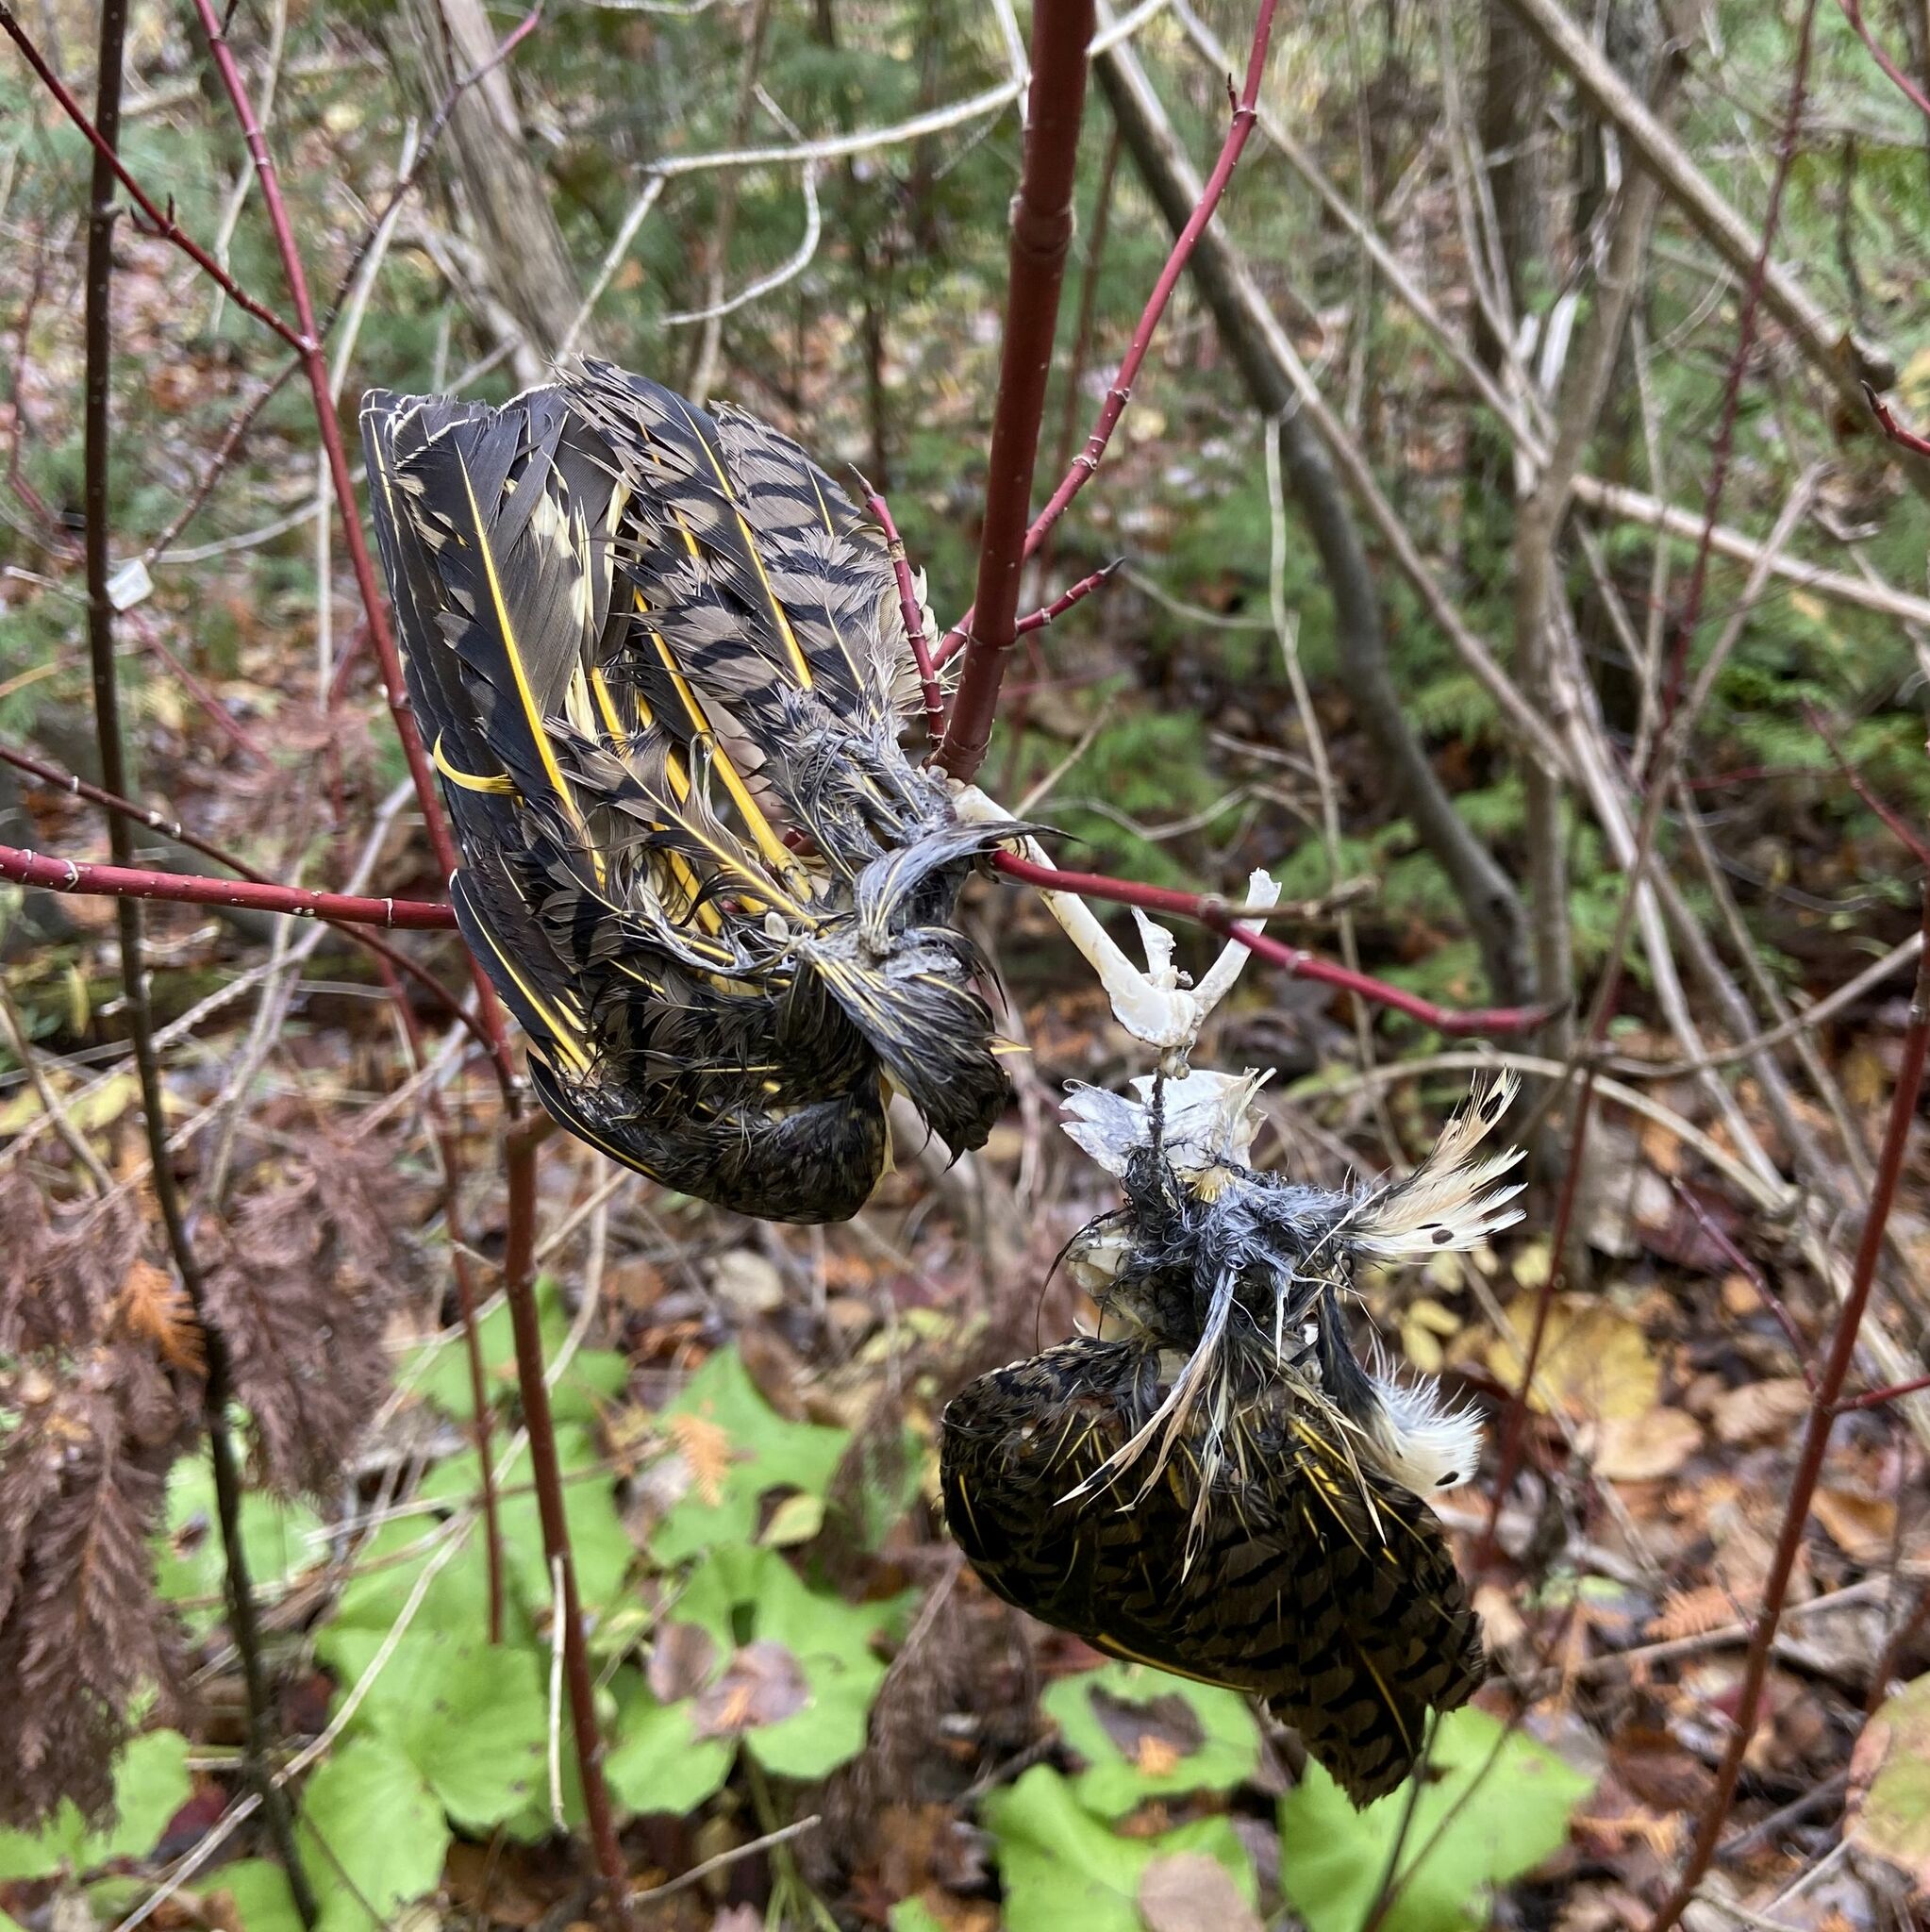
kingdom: Animalia
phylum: Chordata
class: Aves
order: Piciformes
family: Picidae
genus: Colaptes
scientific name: Colaptes auratus
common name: Northern flicker
